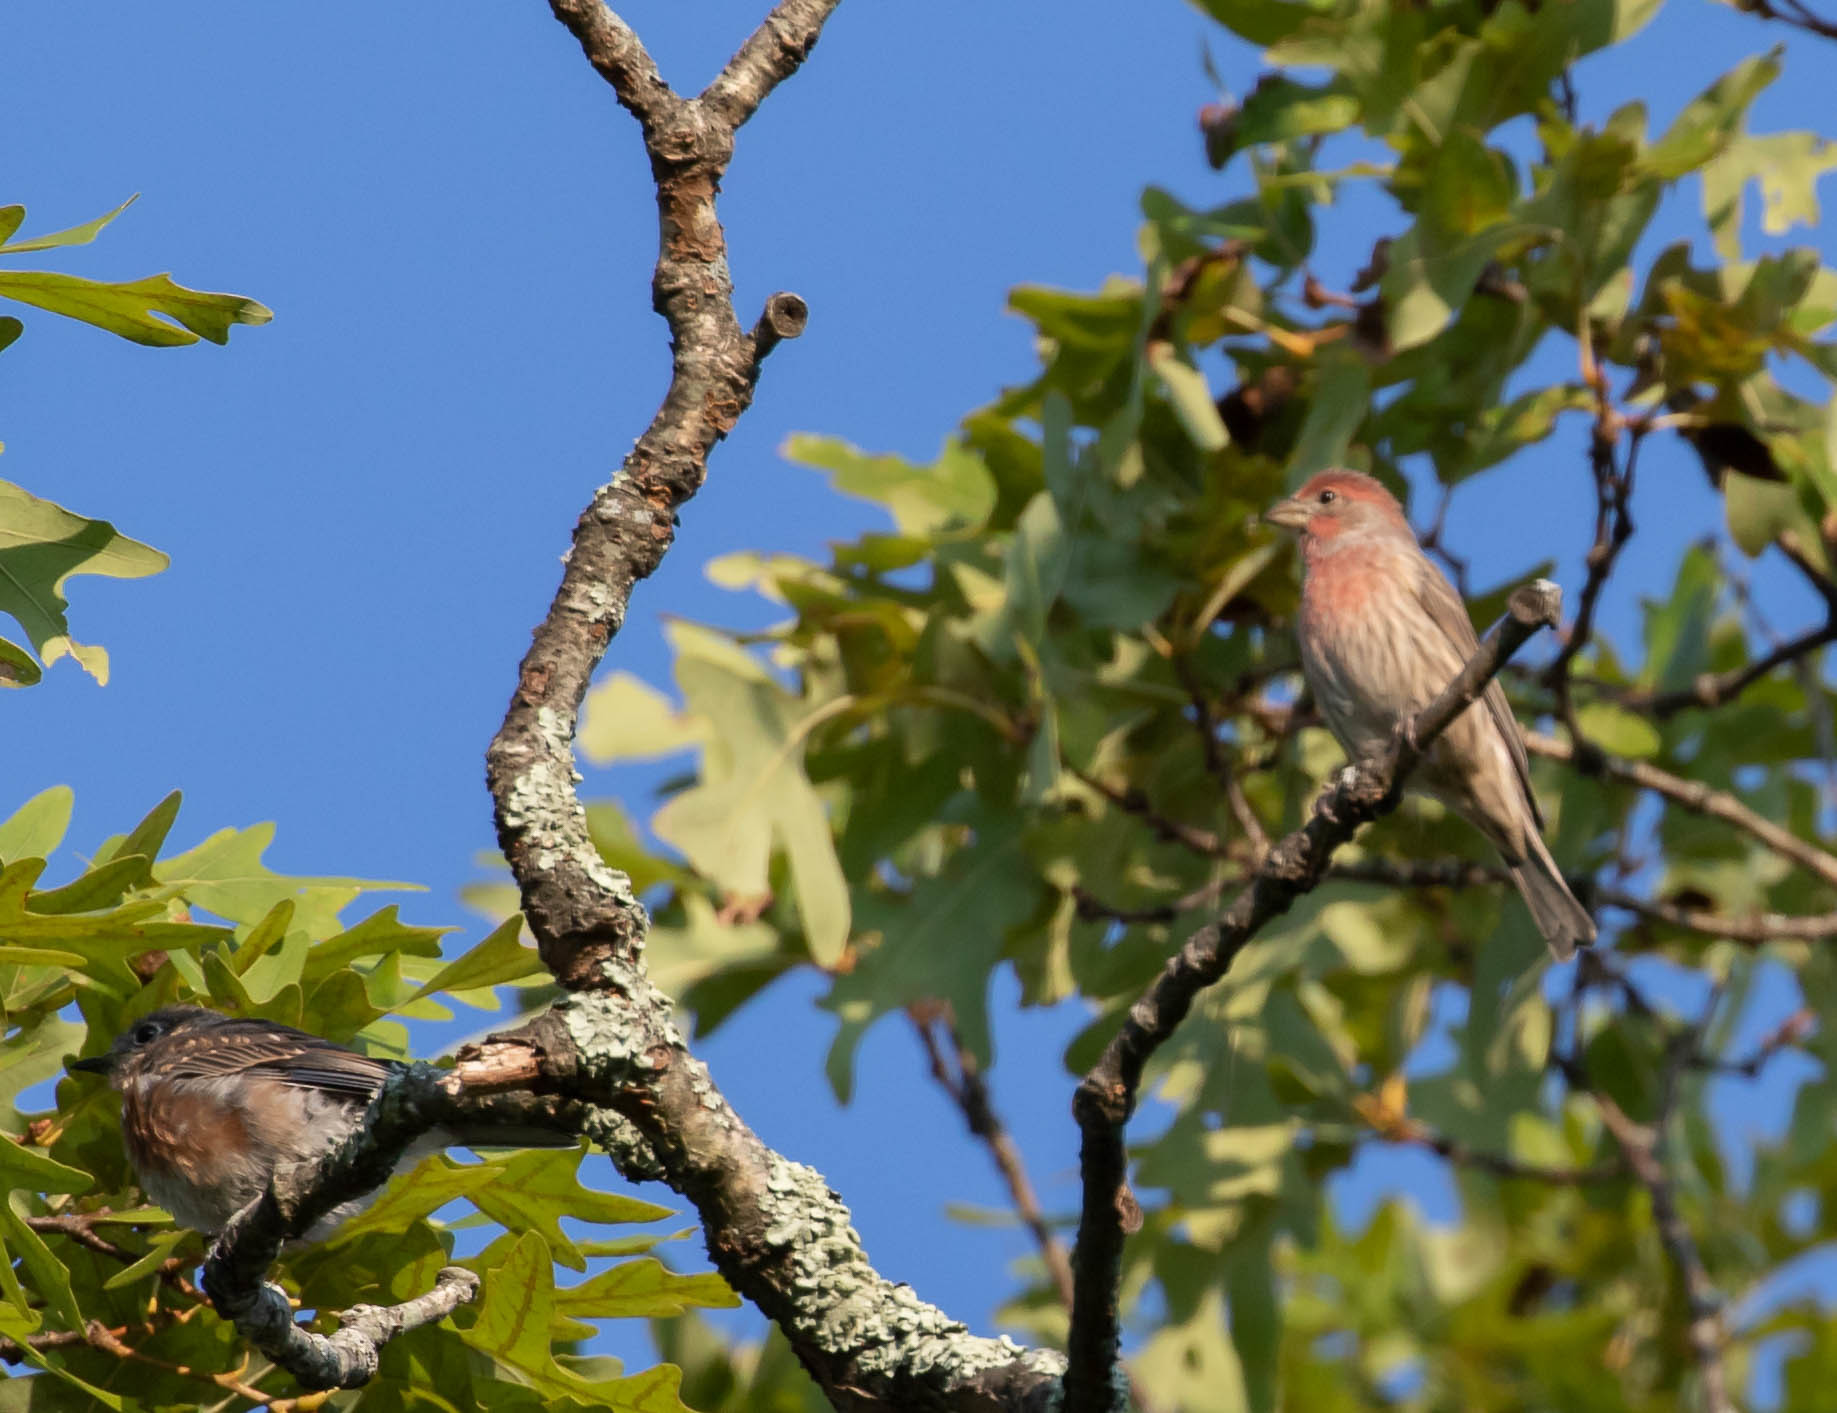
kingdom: Animalia
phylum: Chordata
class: Aves
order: Passeriformes
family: Fringillidae
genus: Haemorhous
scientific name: Haemorhous mexicanus
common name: House finch
